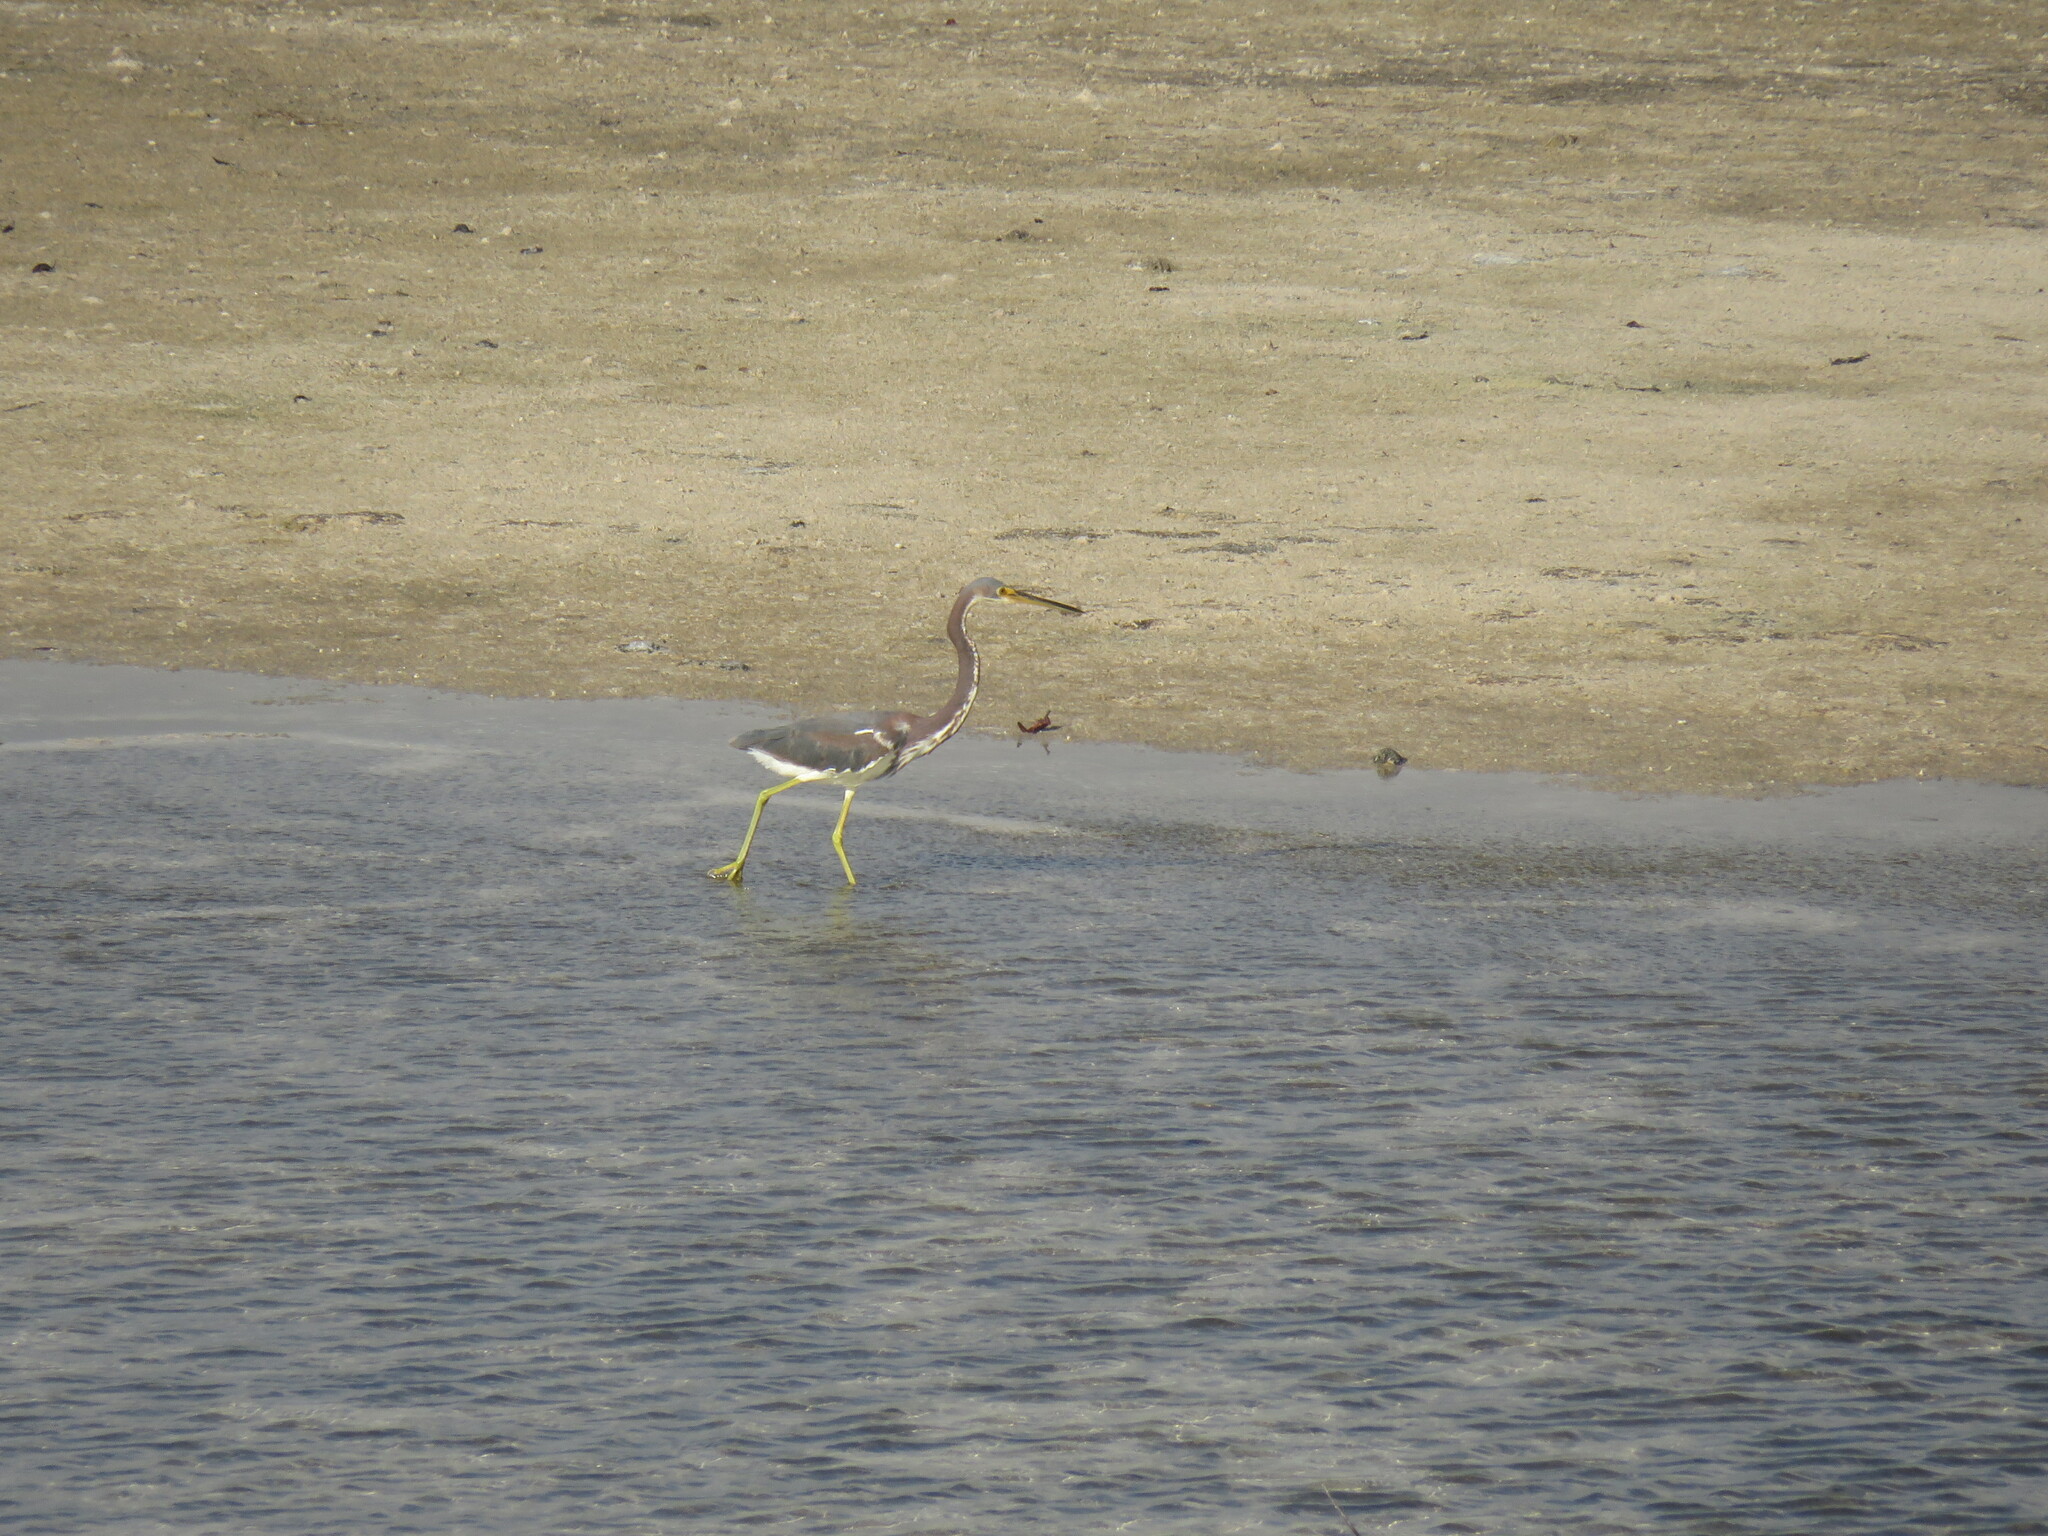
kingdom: Animalia
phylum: Chordata
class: Aves
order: Pelecaniformes
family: Ardeidae
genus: Egretta
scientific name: Egretta tricolor
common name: Tricolored heron
